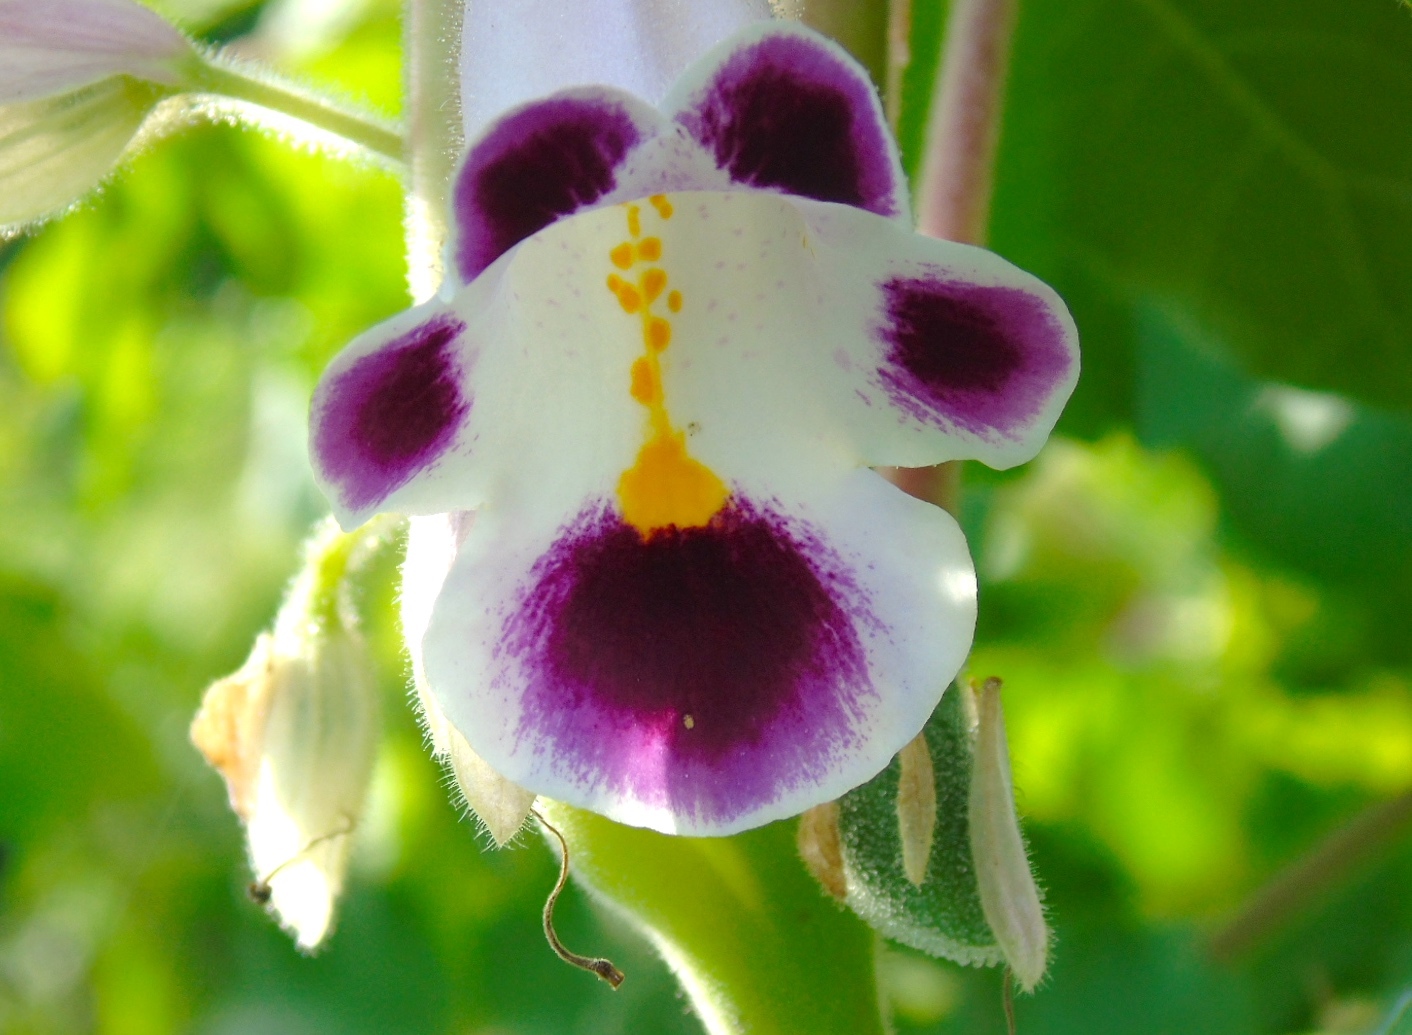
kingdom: Plantae
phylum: Tracheophyta
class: Magnoliopsida
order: Lamiales
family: Martyniaceae
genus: Martynia
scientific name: Martynia annua
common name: Tiger's-claw
